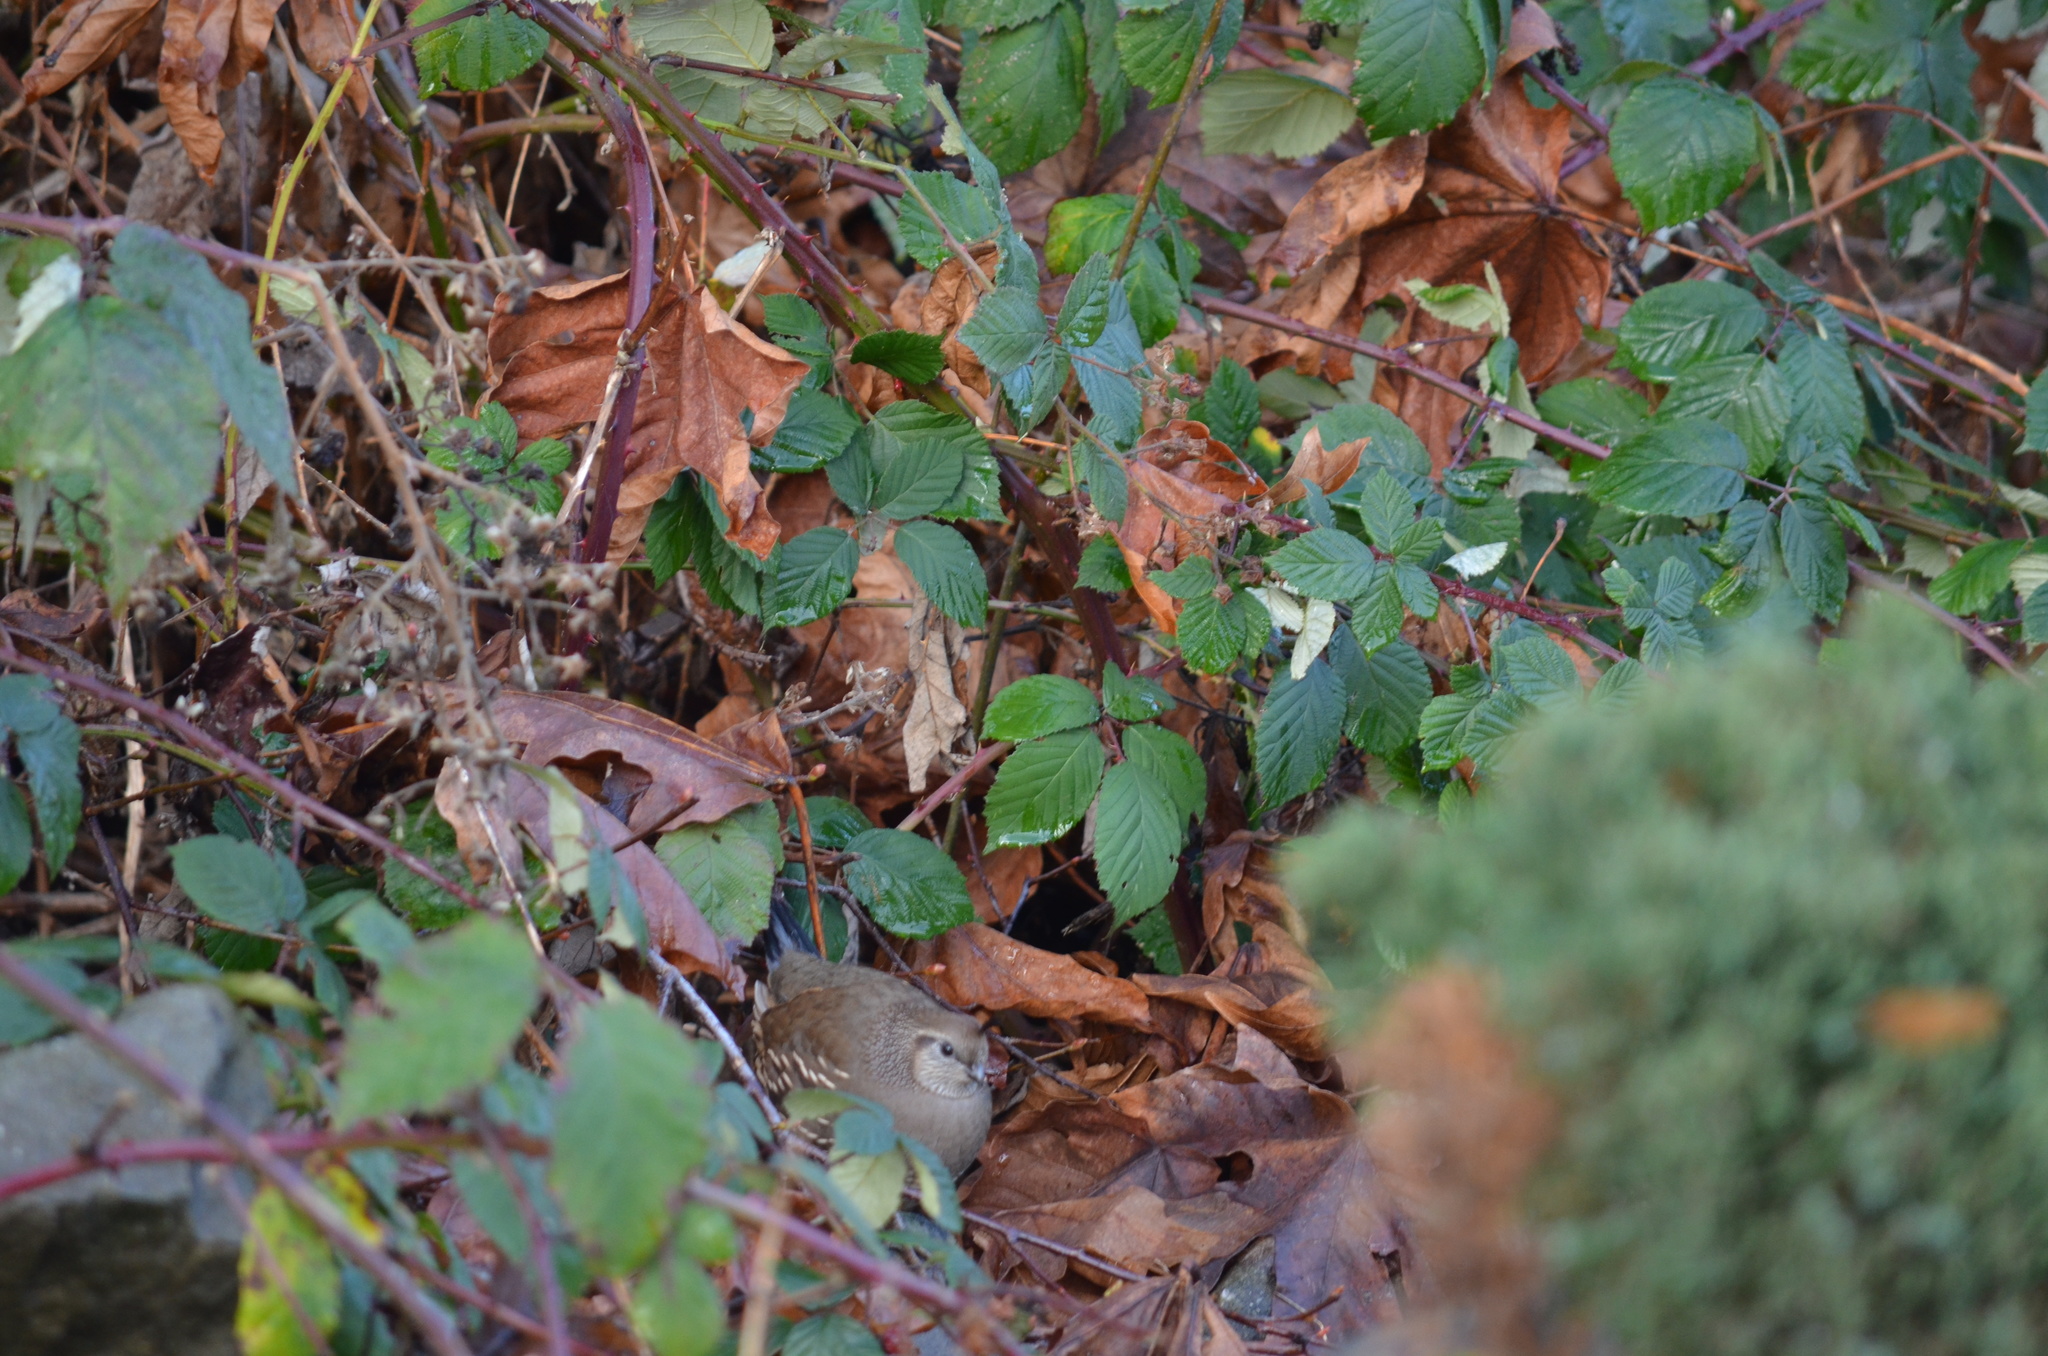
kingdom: Animalia
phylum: Chordata
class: Aves
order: Galliformes
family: Odontophoridae
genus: Callipepla
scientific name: Callipepla californica
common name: California quail
